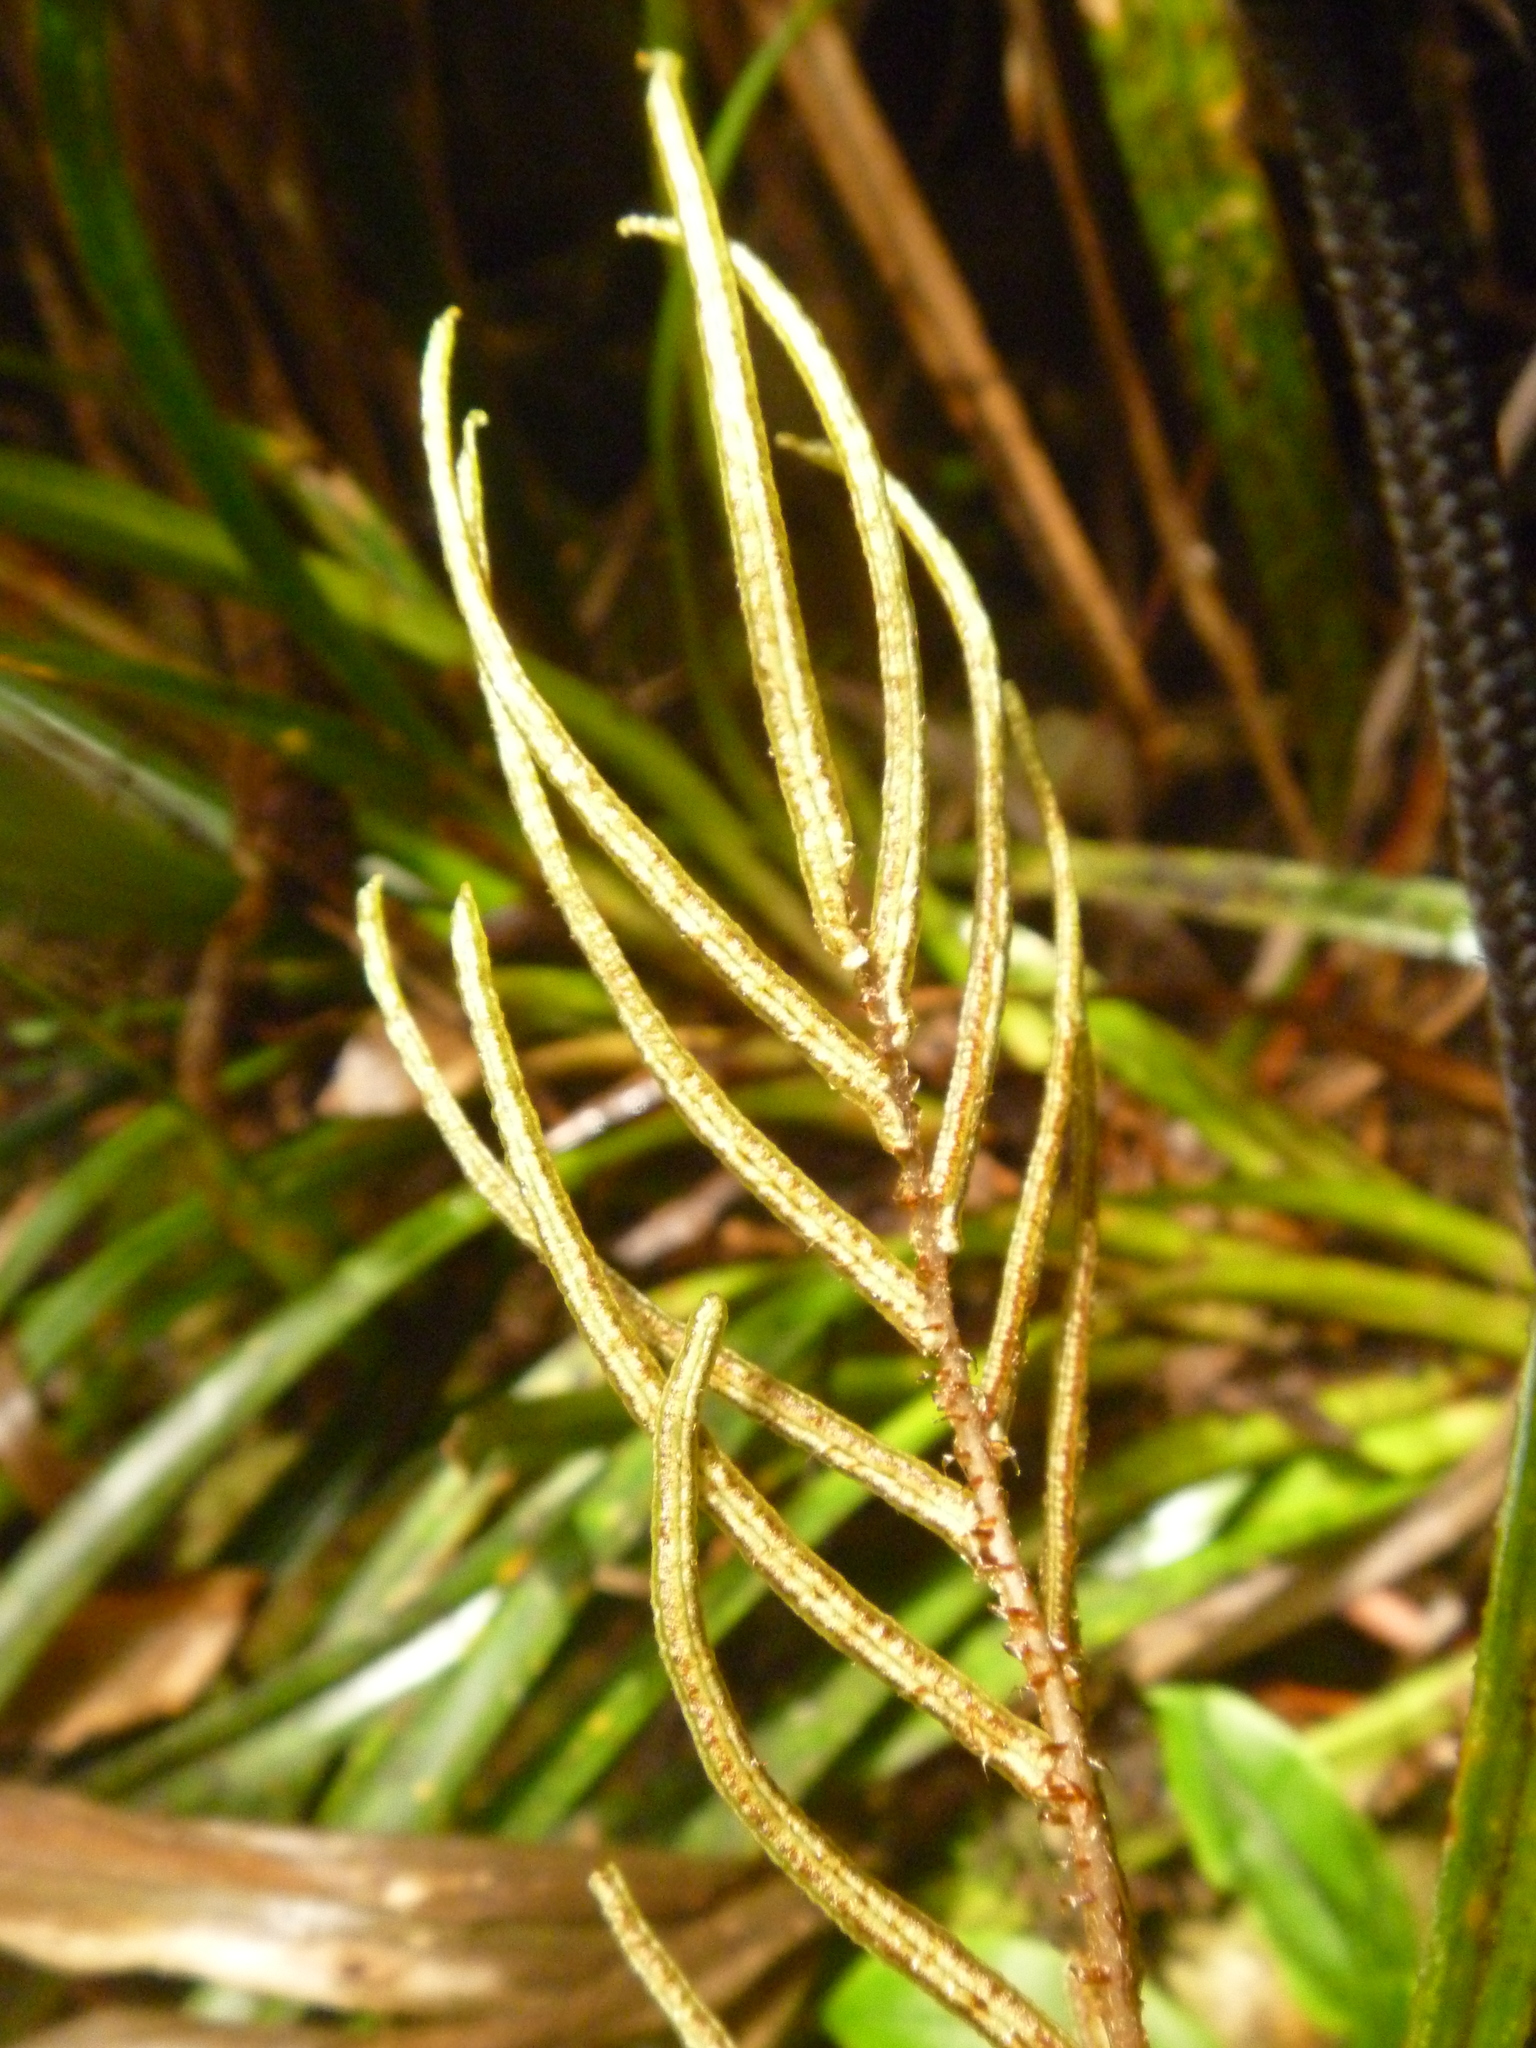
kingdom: Plantae
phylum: Tracheophyta
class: Polypodiopsida
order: Polypodiales
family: Blechnaceae
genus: Parablechnum
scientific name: Parablechnum procerum
